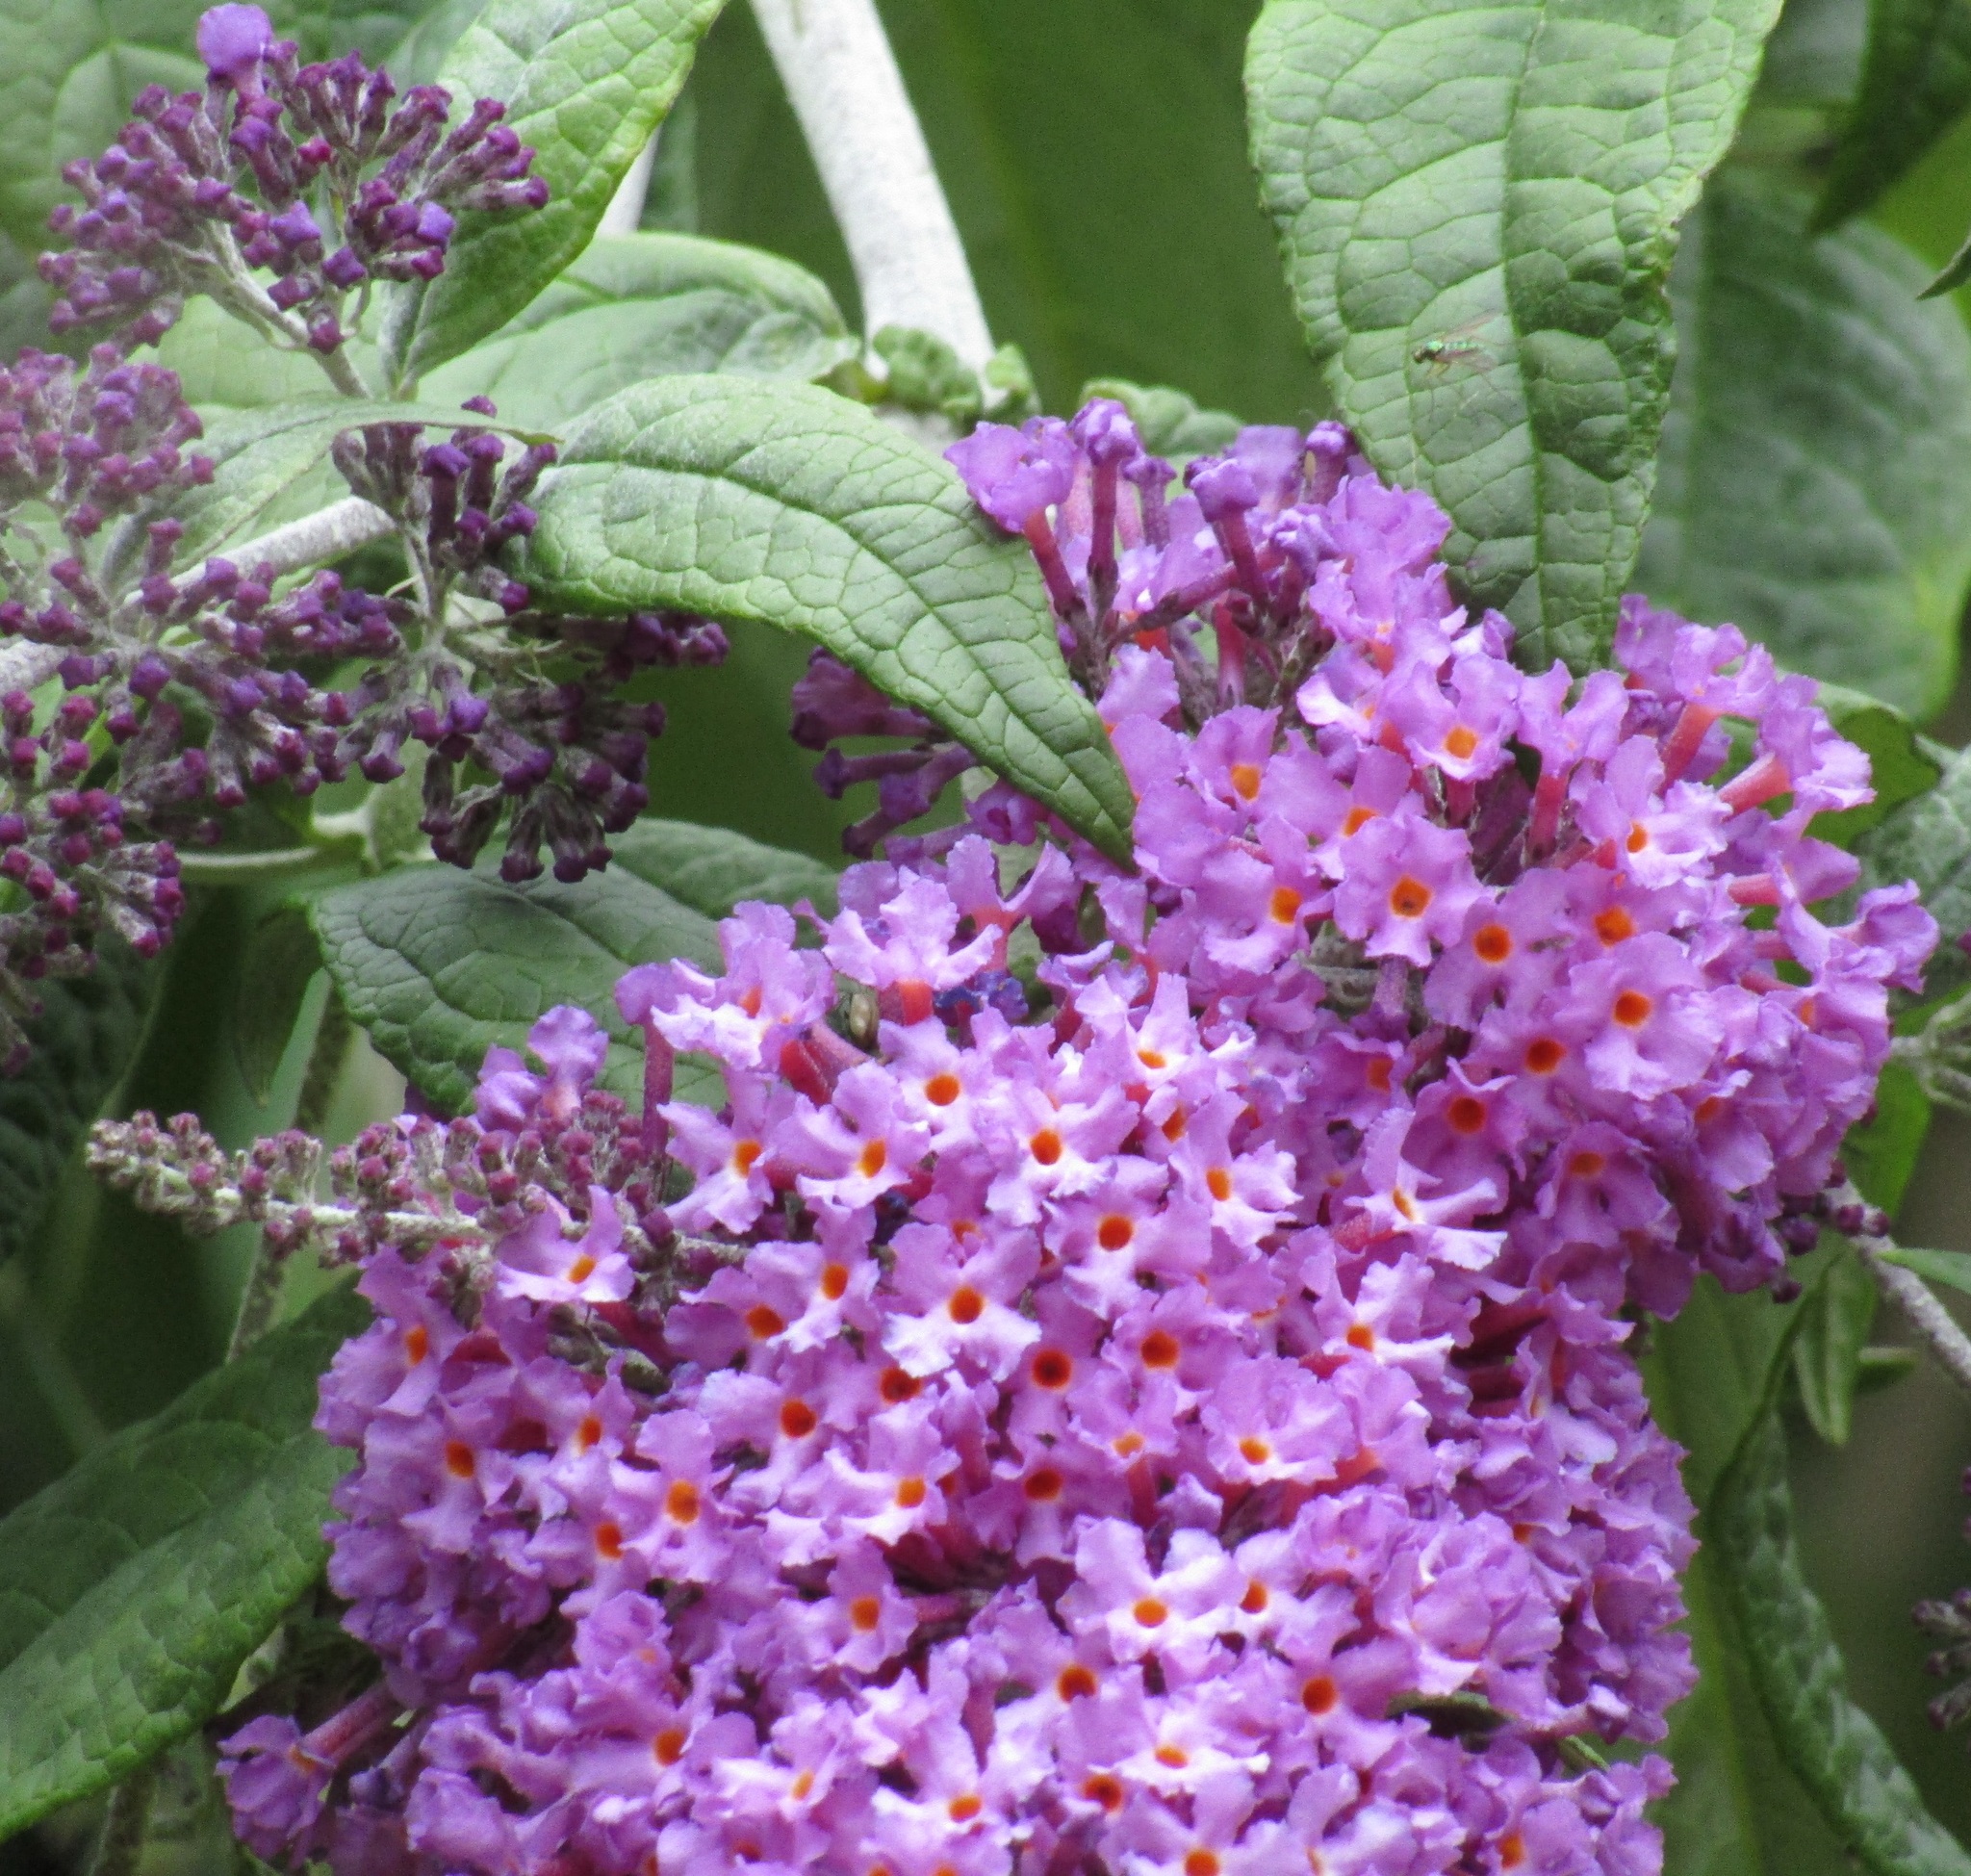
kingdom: Plantae
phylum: Tracheophyta
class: Magnoliopsida
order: Lamiales
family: Scrophulariaceae
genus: Buddleja
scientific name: Buddleja davidii
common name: Butterfly-bush
